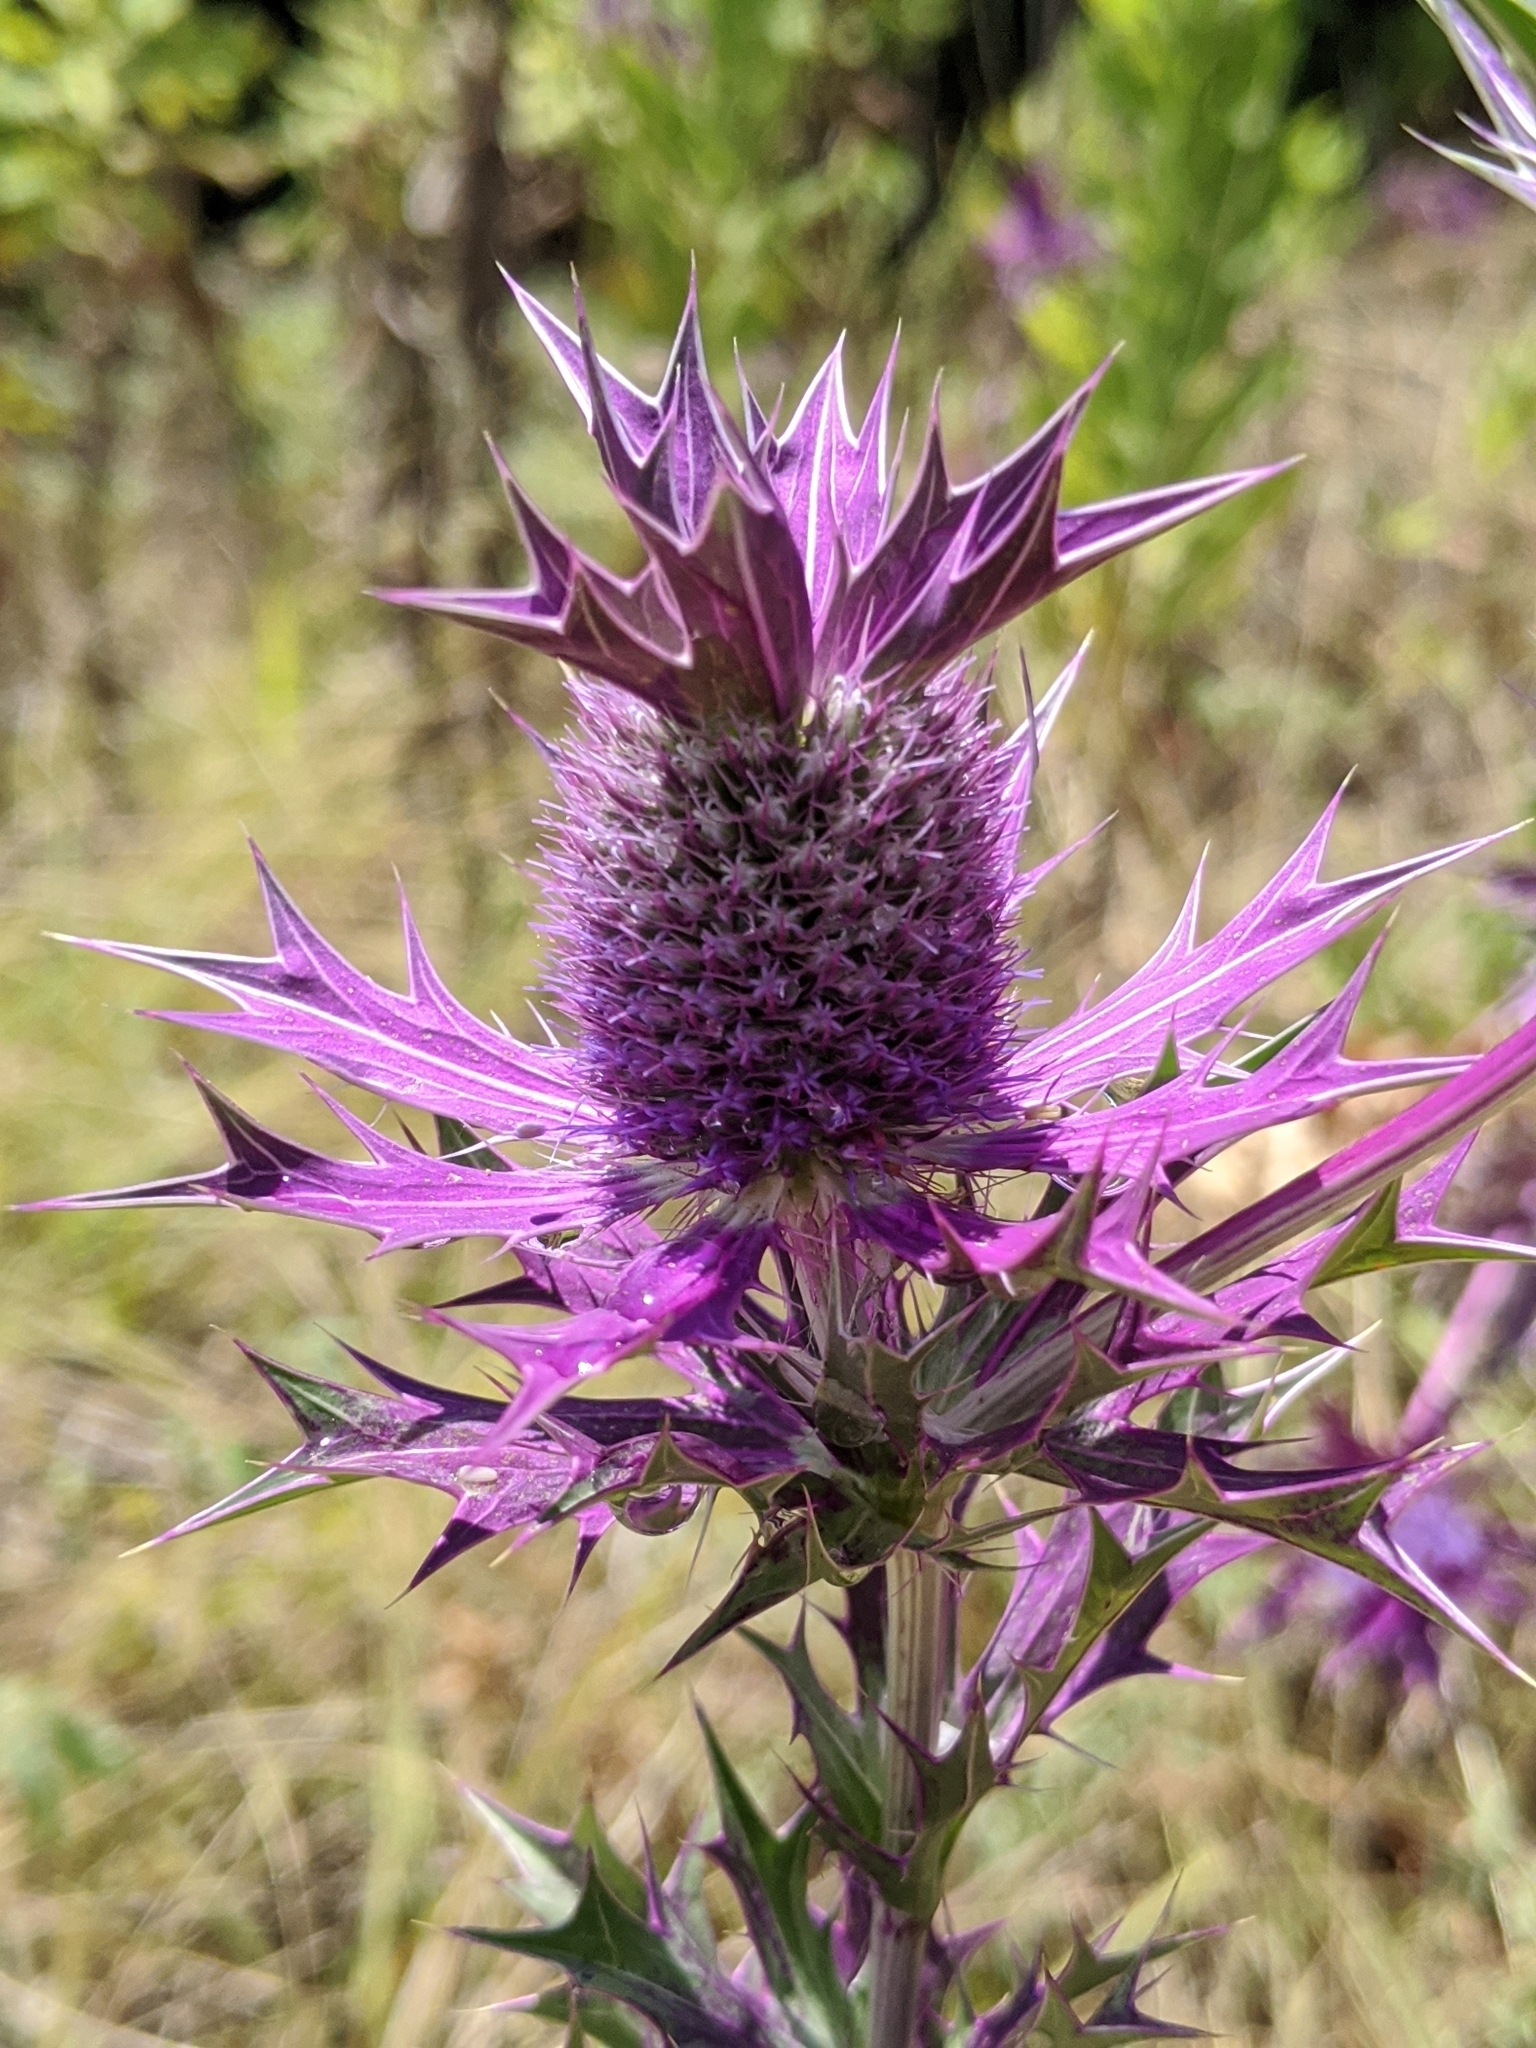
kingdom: Plantae
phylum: Tracheophyta
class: Magnoliopsida
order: Apiales
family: Apiaceae
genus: Eryngium
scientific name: Eryngium leavenworthii
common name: Leavenworth's eryngo
